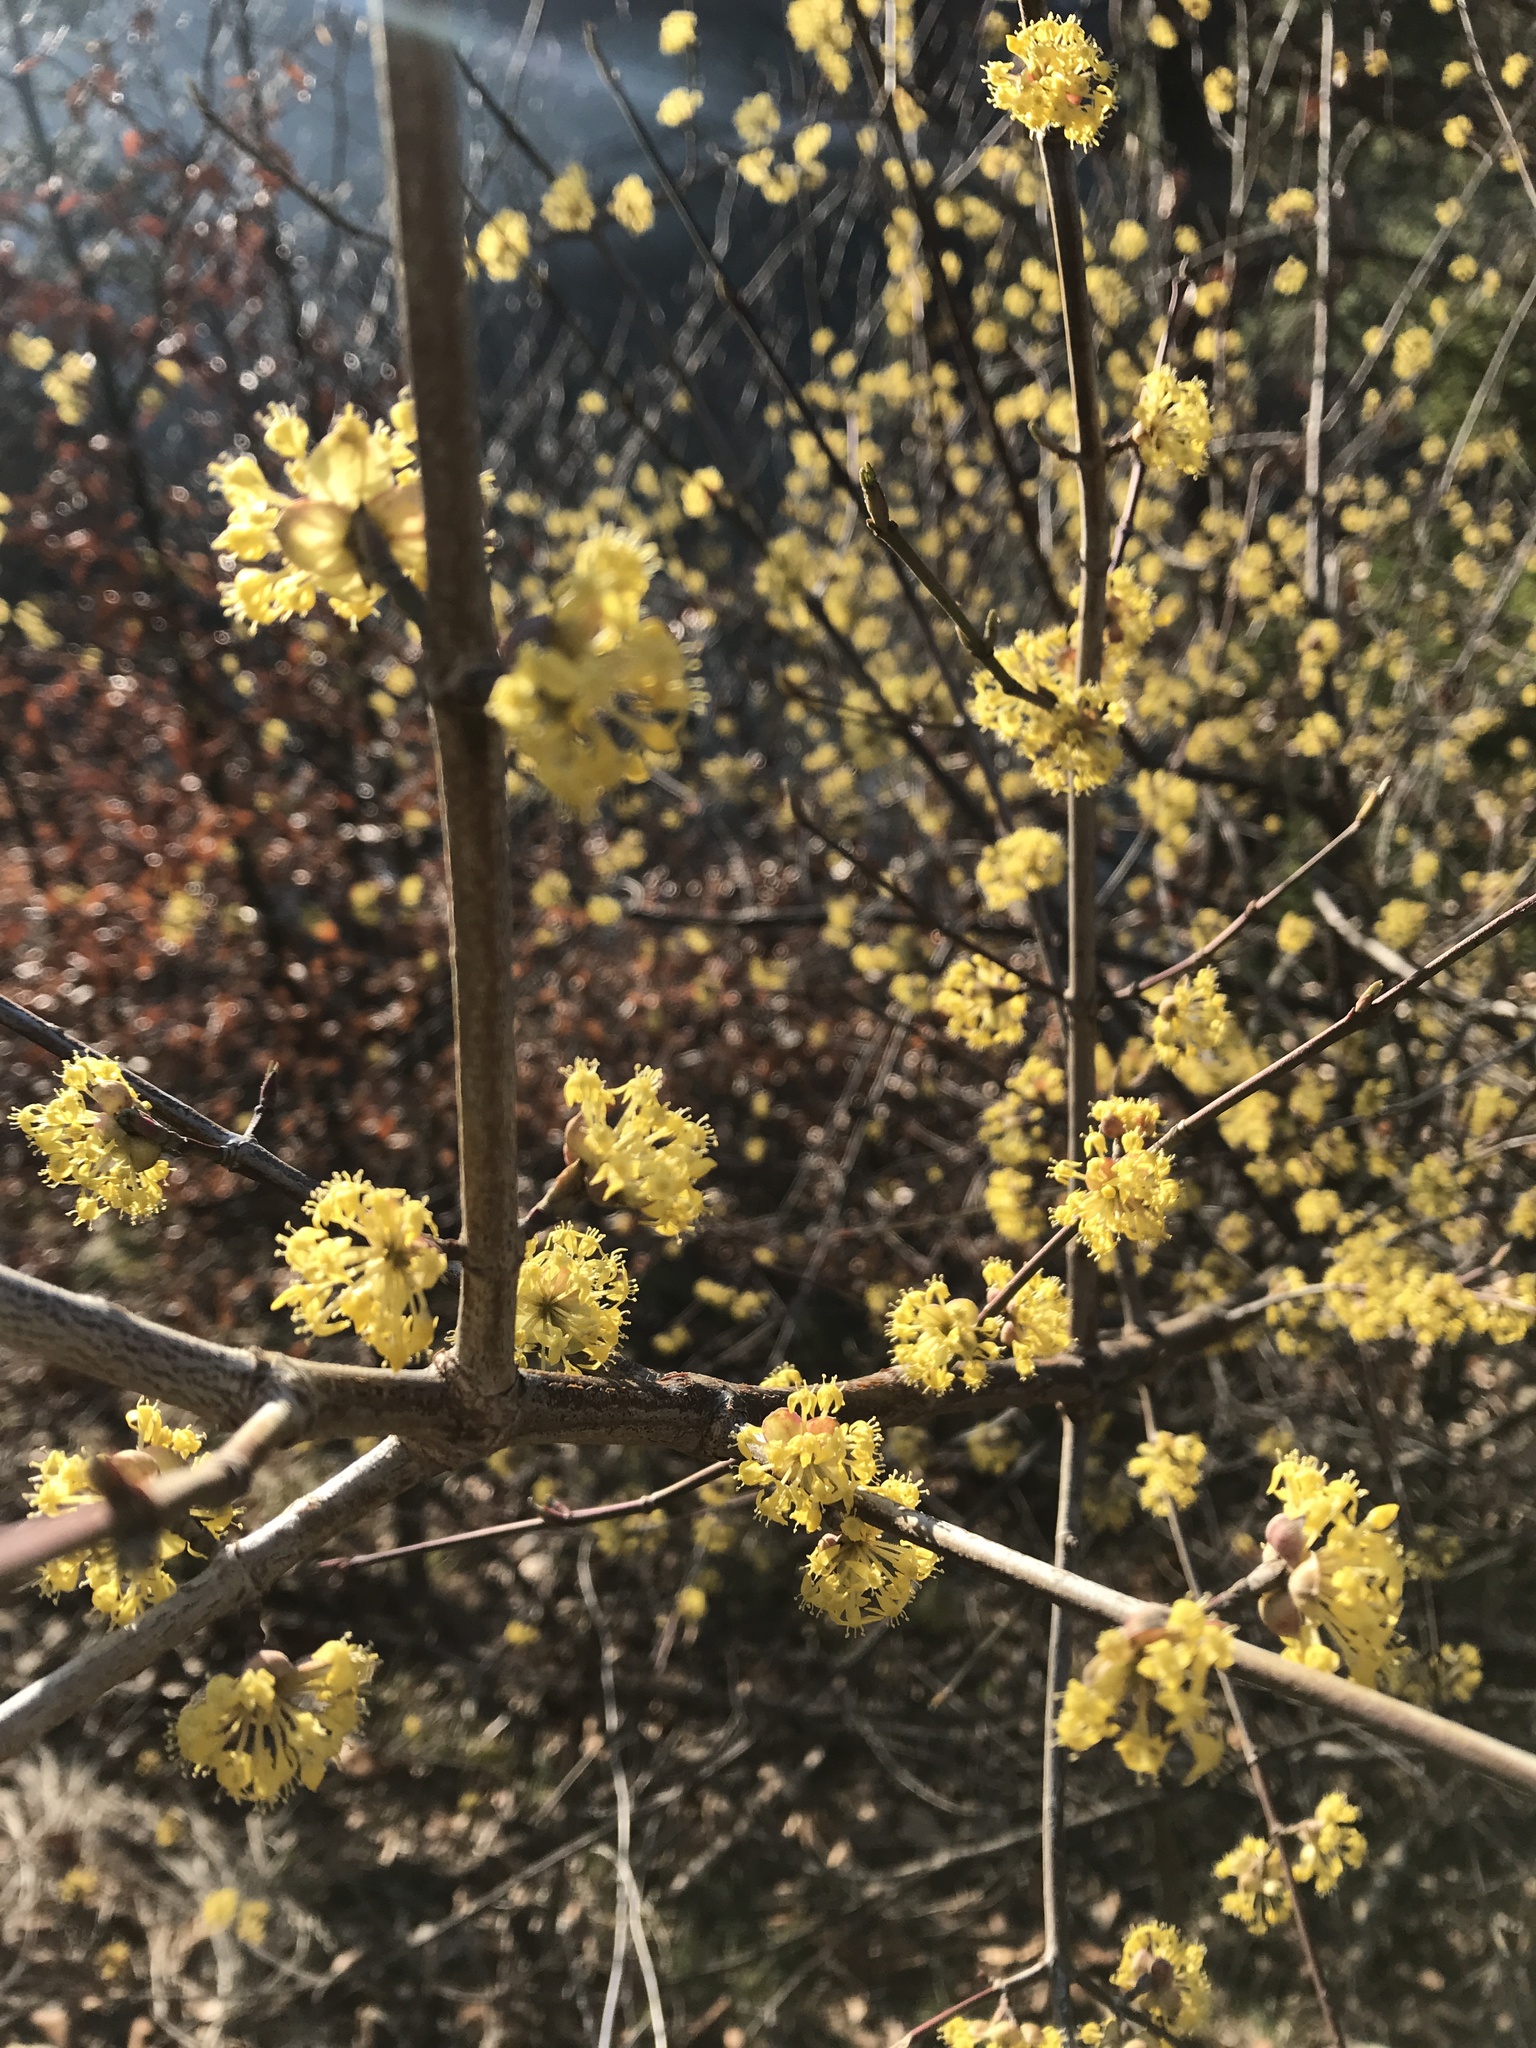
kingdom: Plantae
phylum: Tracheophyta
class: Magnoliopsida
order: Cornales
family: Cornaceae
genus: Cornus
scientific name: Cornus mas
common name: Cornelian-cherry
